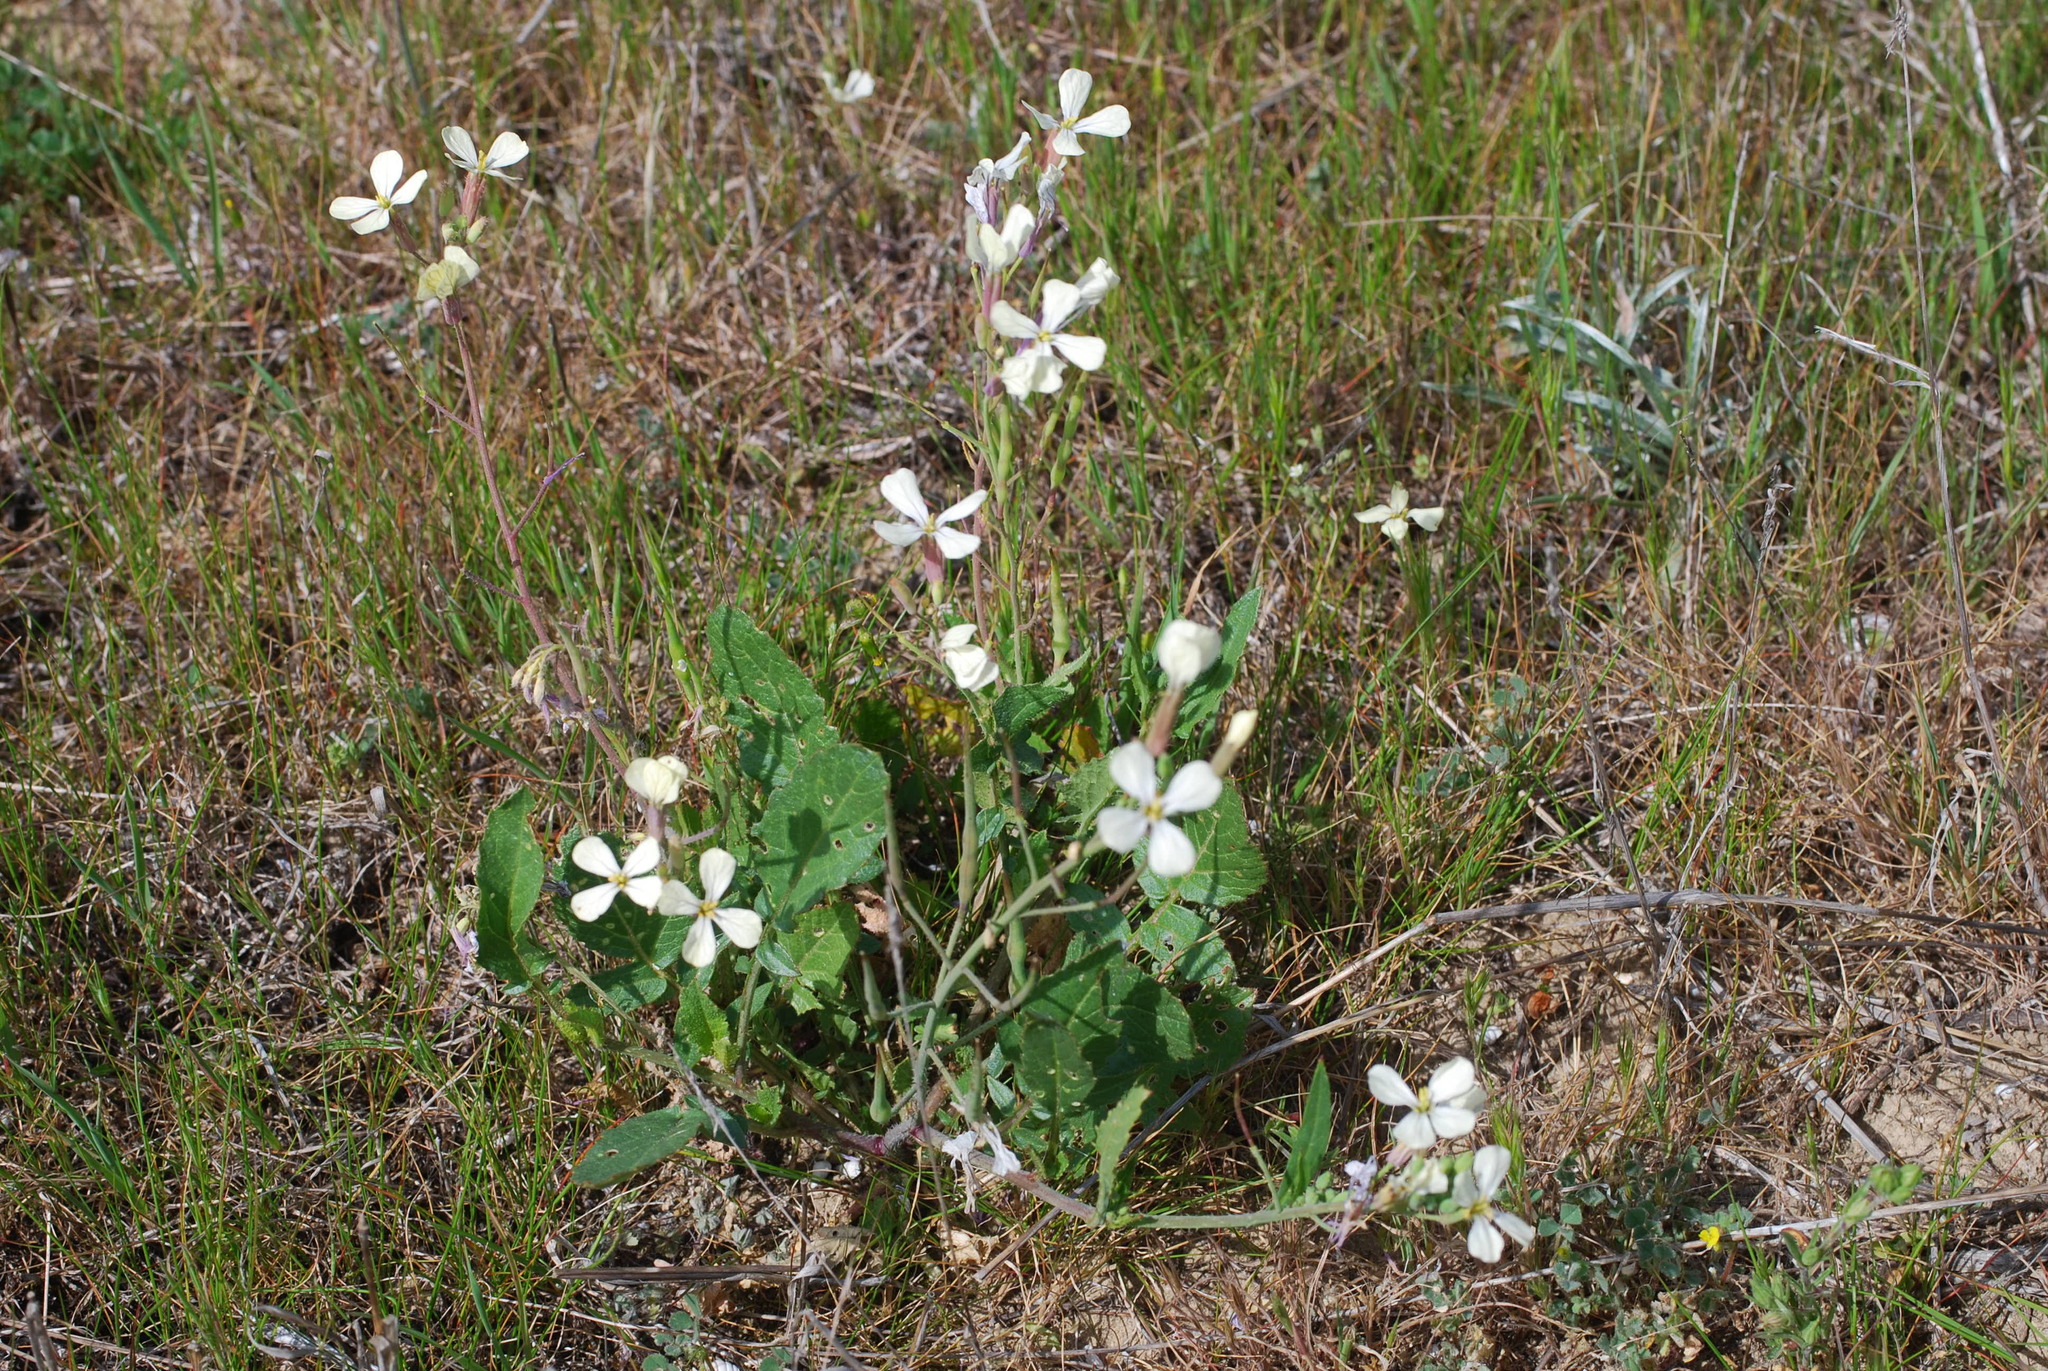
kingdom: Plantae
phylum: Tracheophyta
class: Magnoliopsida
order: Brassicales
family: Brassicaceae
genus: Raphanus
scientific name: Raphanus raphanistrum
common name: Wild radish
